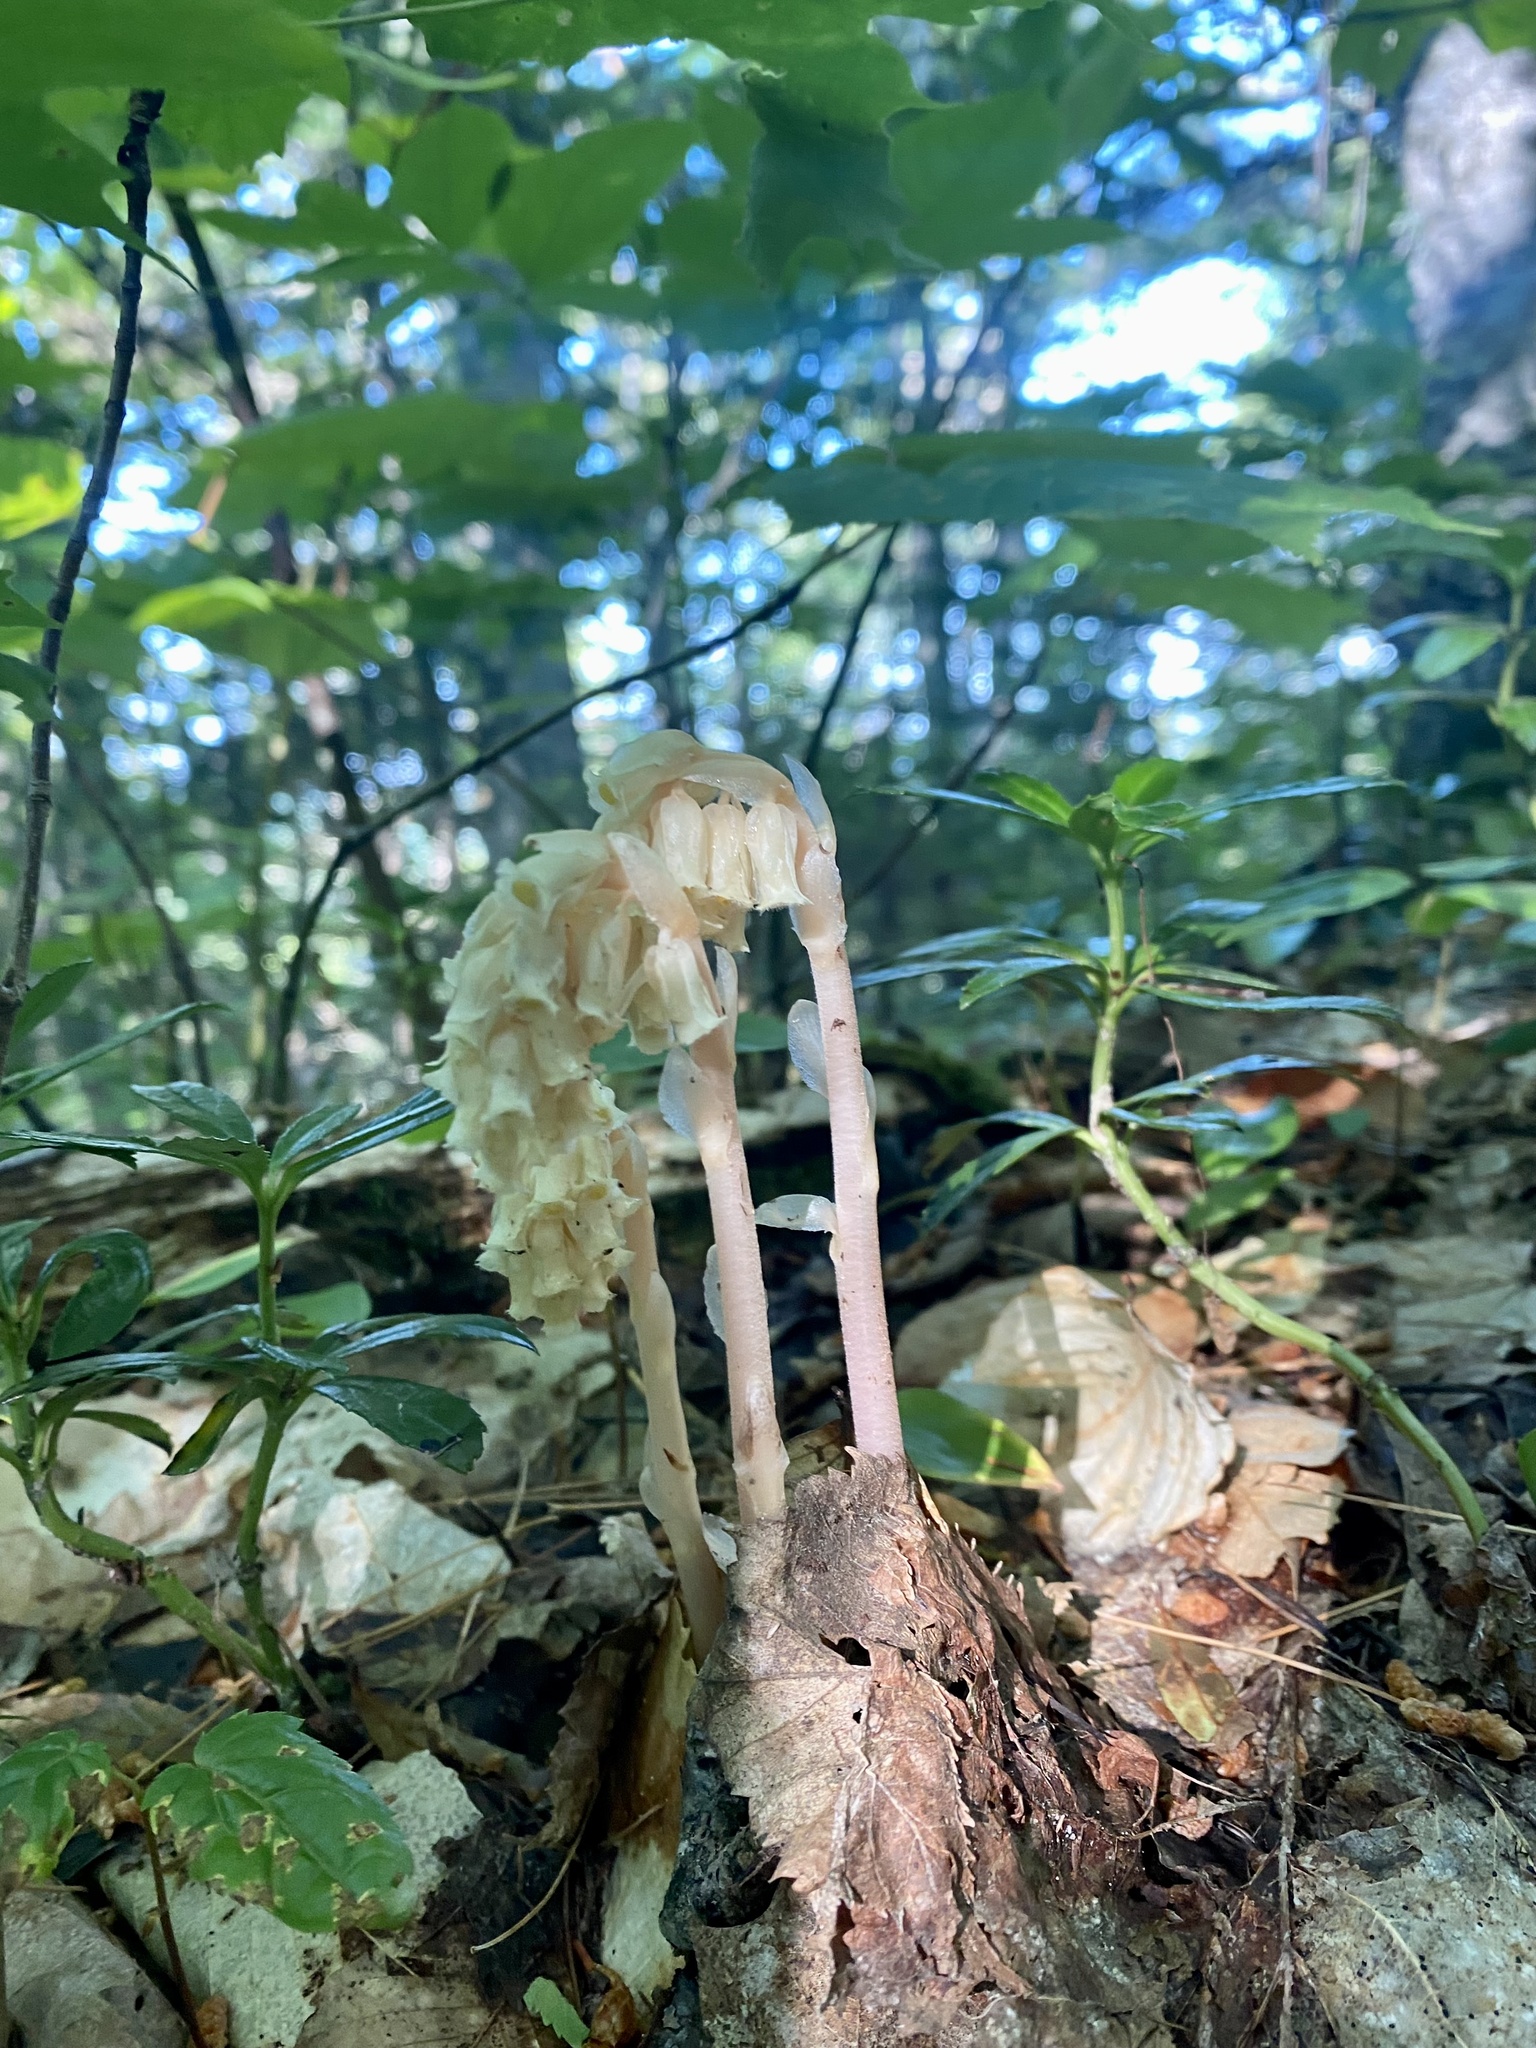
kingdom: Plantae
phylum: Tracheophyta
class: Magnoliopsida
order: Ericales
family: Ericaceae
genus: Hypopitys
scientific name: Hypopitys monotropa
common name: Yellow bird's-nest
